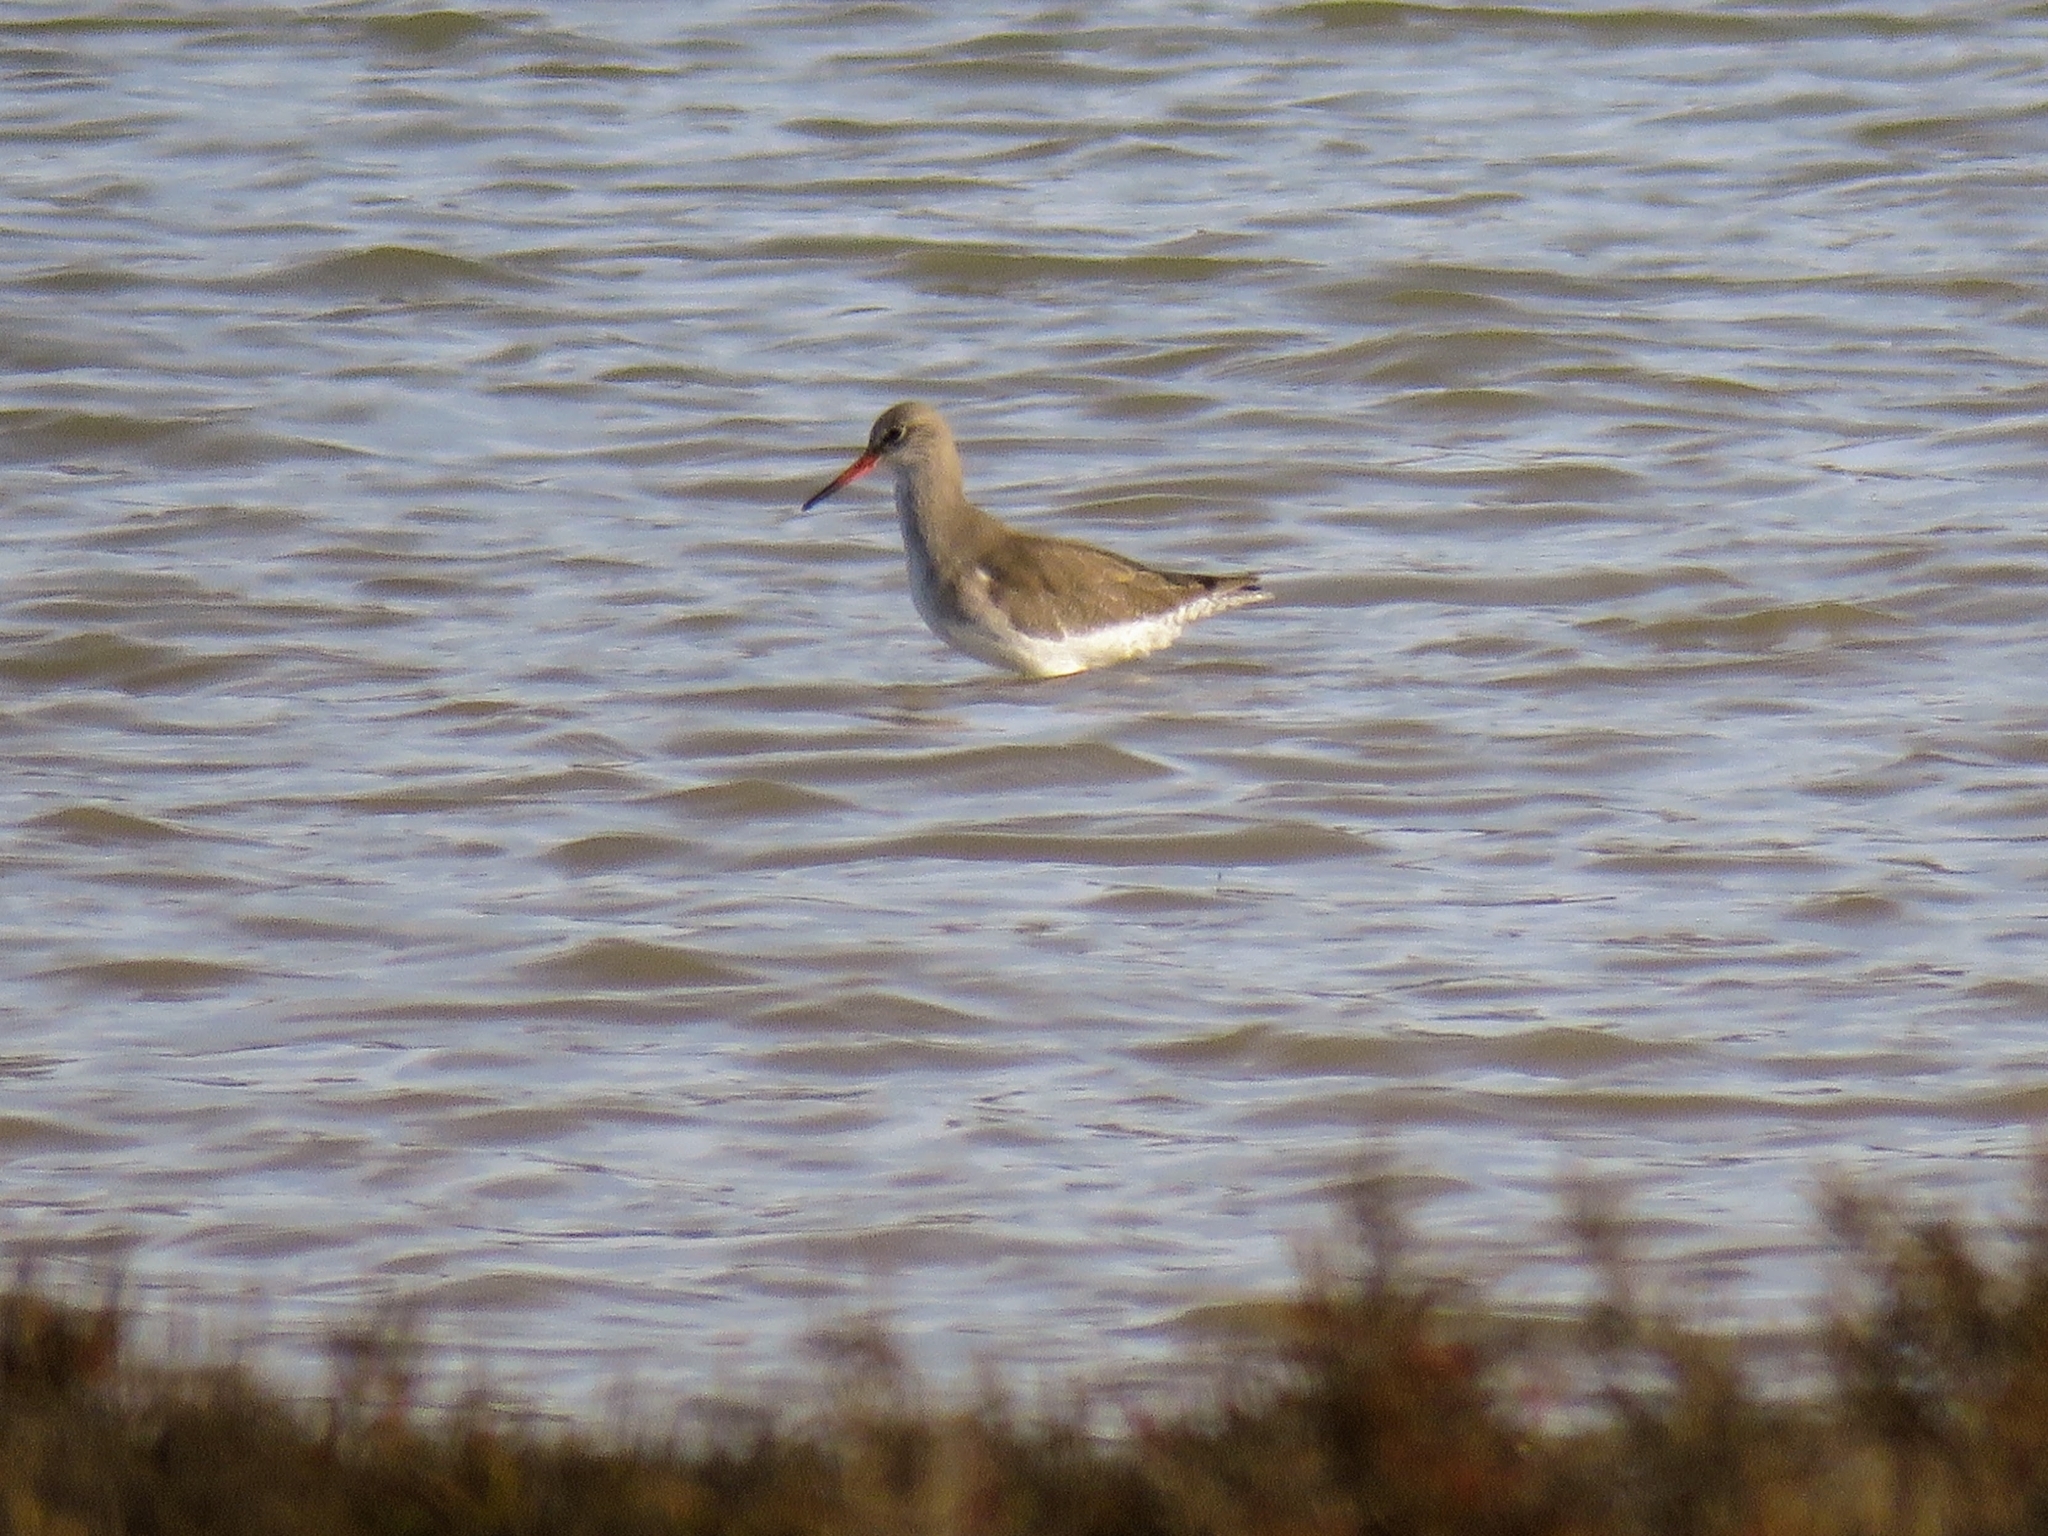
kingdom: Animalia
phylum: Chordata
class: Aves
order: Charadriiformes
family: Scolopacidae
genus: Tringa
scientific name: Tringa totanus
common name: Common redshank
